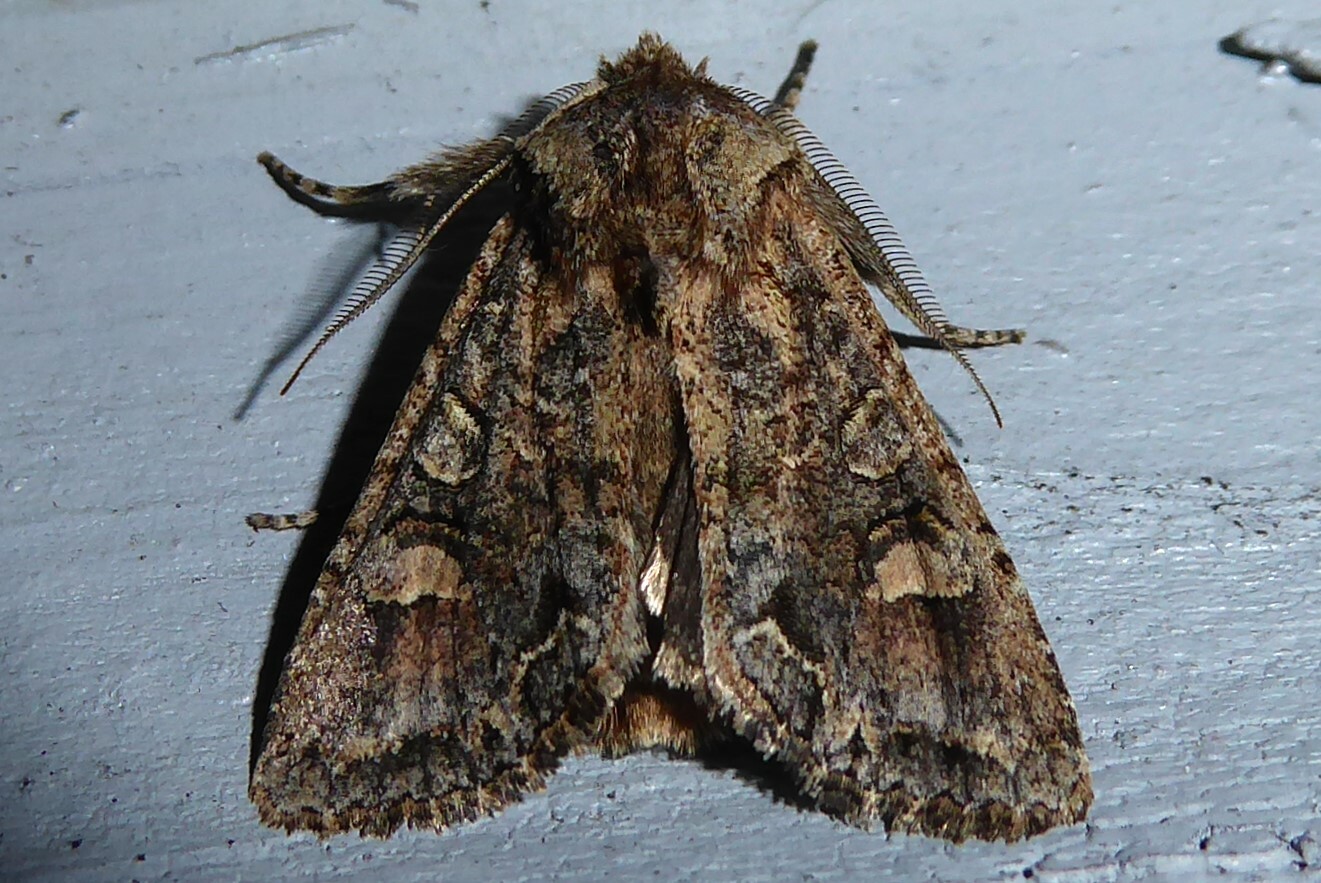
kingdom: Animalia
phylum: Arthropoda
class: Insecta
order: Lepidoptera
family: Noctuidae
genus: Ichneutica
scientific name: Ichneutica skelloni
